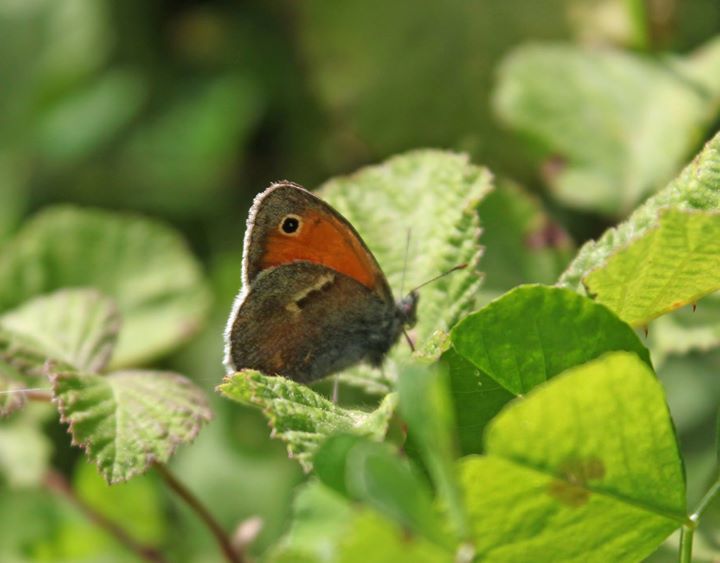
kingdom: Animalia
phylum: Arthropoda
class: Insecta
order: Lepidoptera
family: Nymphalidae
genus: Coenonympha
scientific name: Coenonympha pamphilus
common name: Small heath
